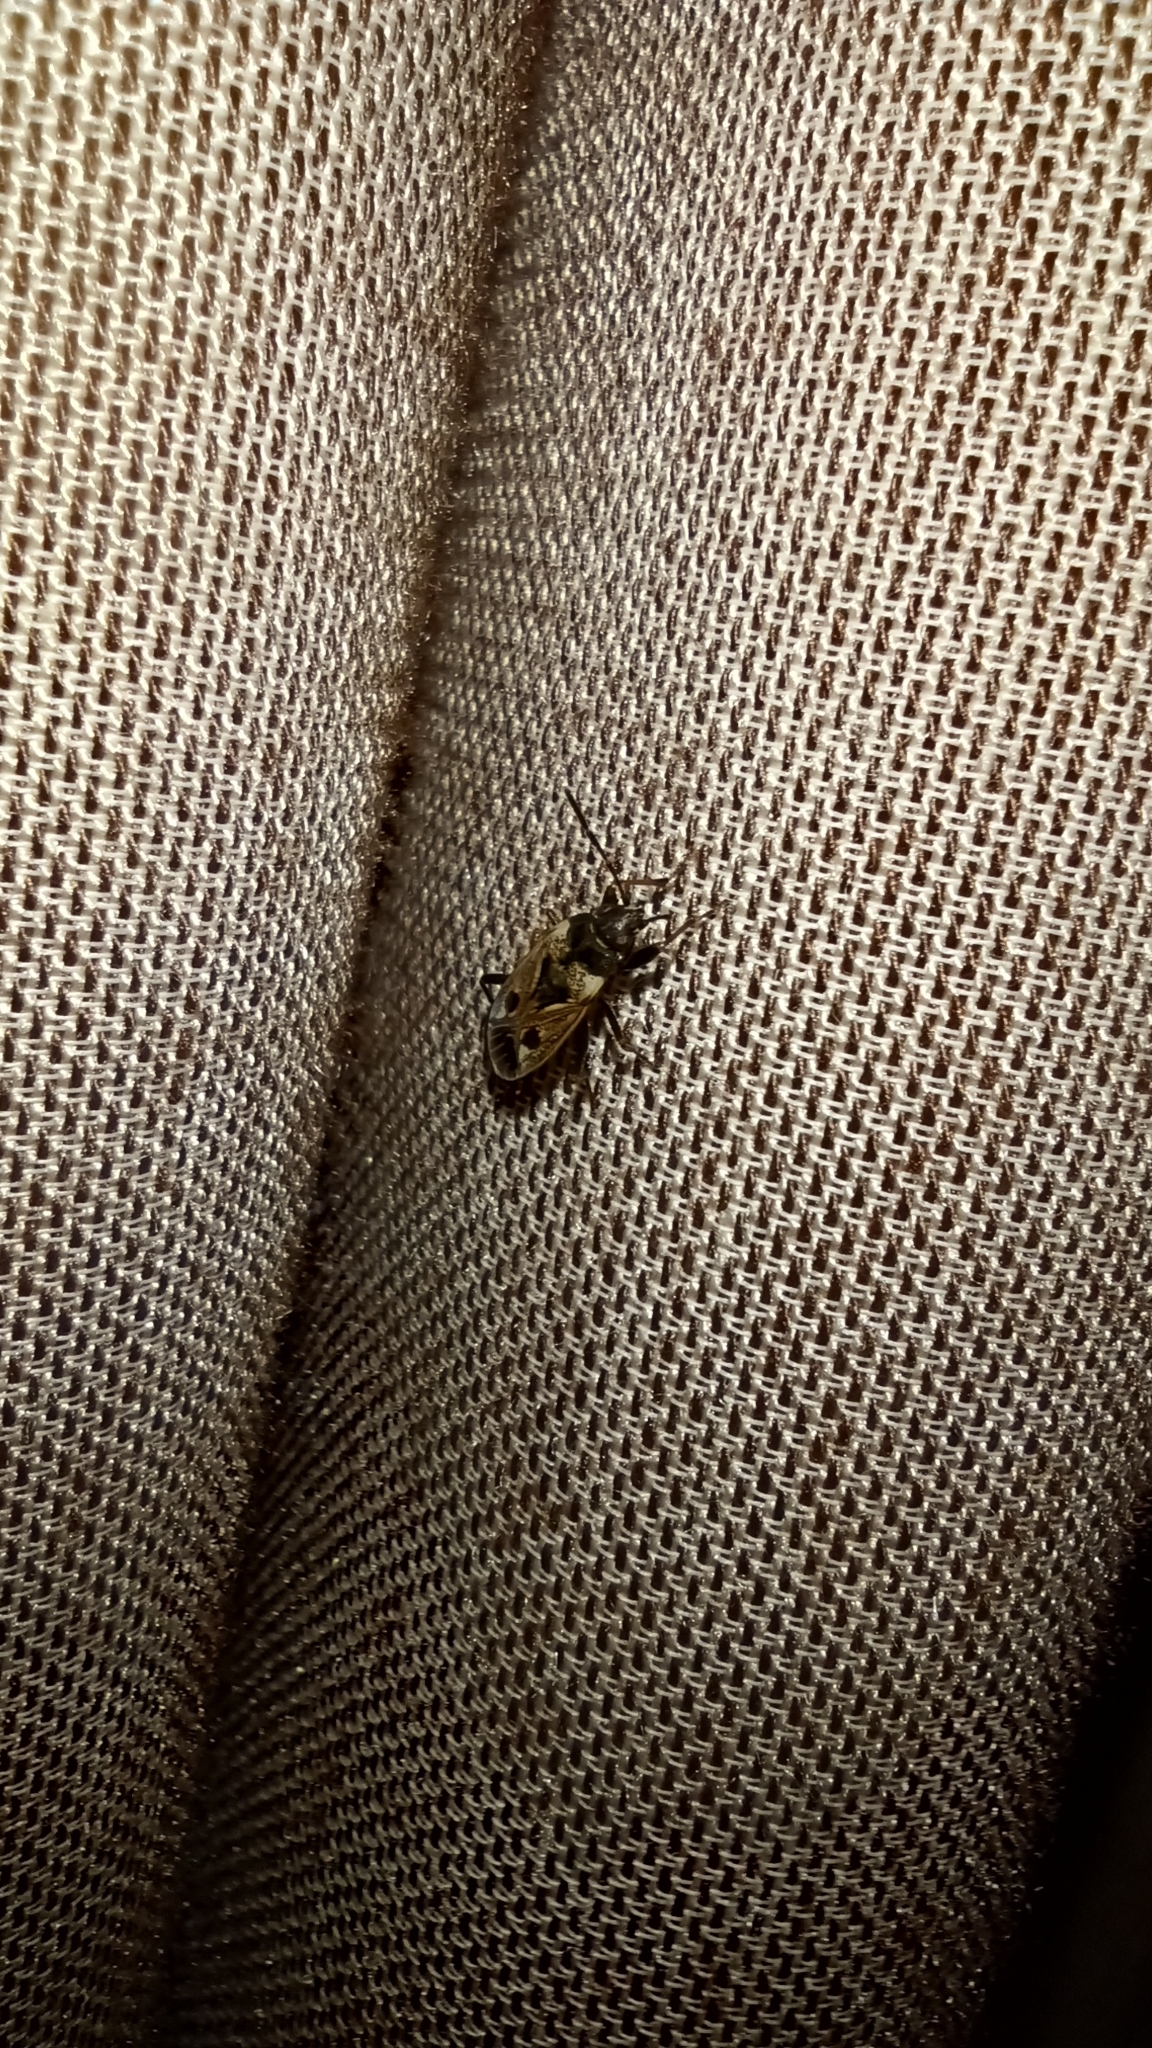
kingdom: Animalia
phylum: Arthropoda
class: Insecta
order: Hemiptera
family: Rhyparochromidae
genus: Rhyparochromus
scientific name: Rhyparochromus vulgaris
